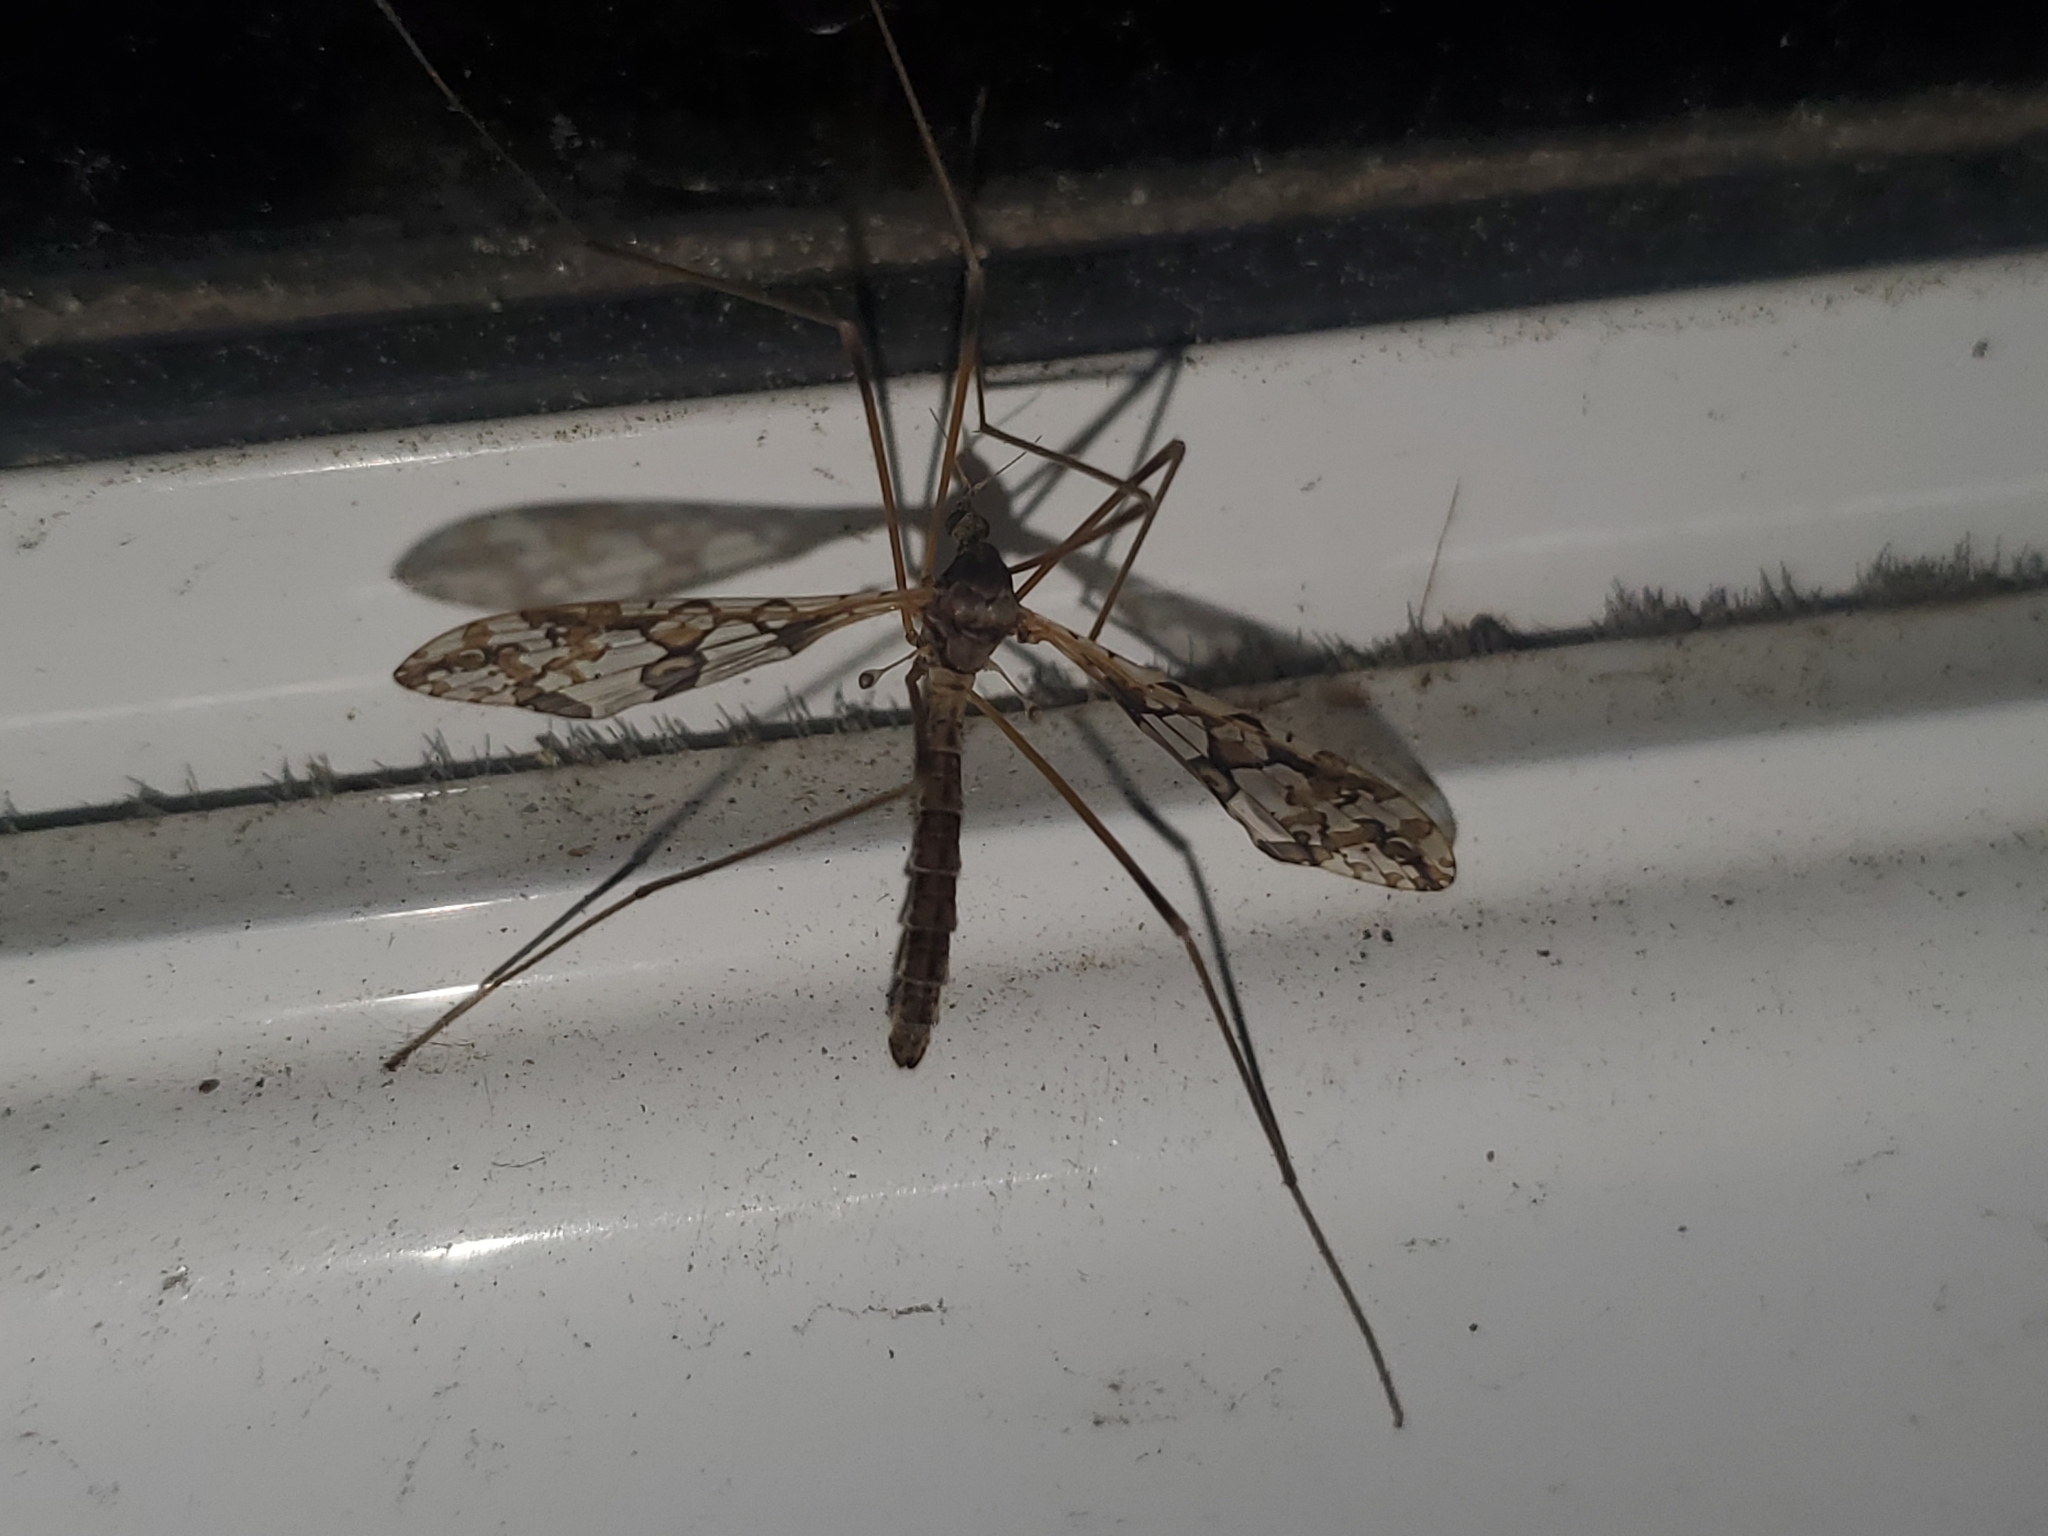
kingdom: Animalia
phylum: Arthropoda
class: Insecta
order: Diptera
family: Limoniidae
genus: Epiphragma
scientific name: Epiphragma solatrix
